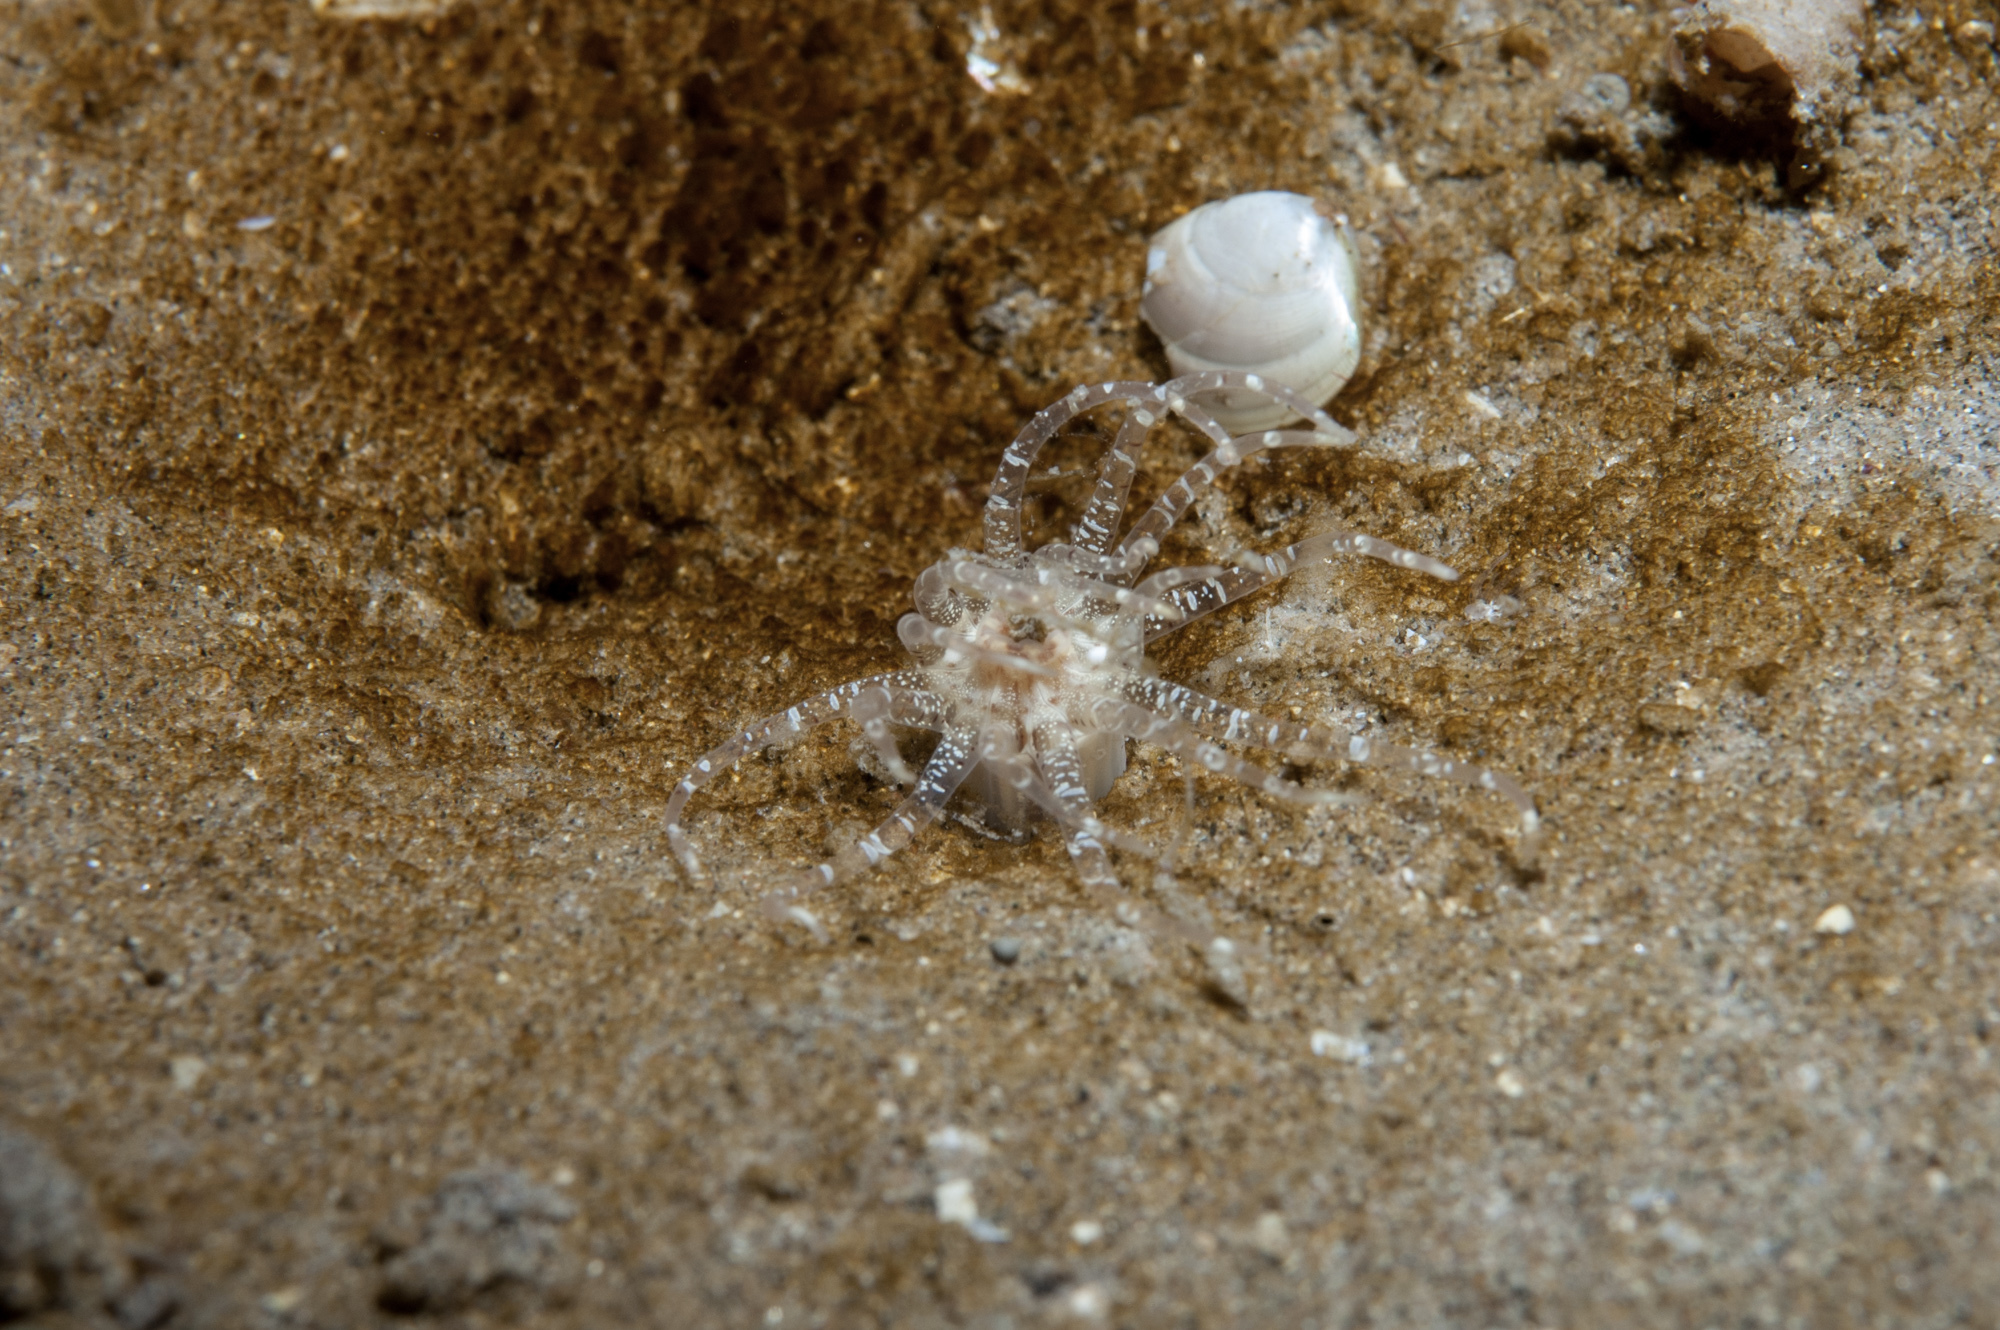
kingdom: Animalia
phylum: Cnidaria
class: Anthozoa
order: Actiniaria
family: Edwardsiidae
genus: Edwardsia
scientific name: Edwardsia claparedii
